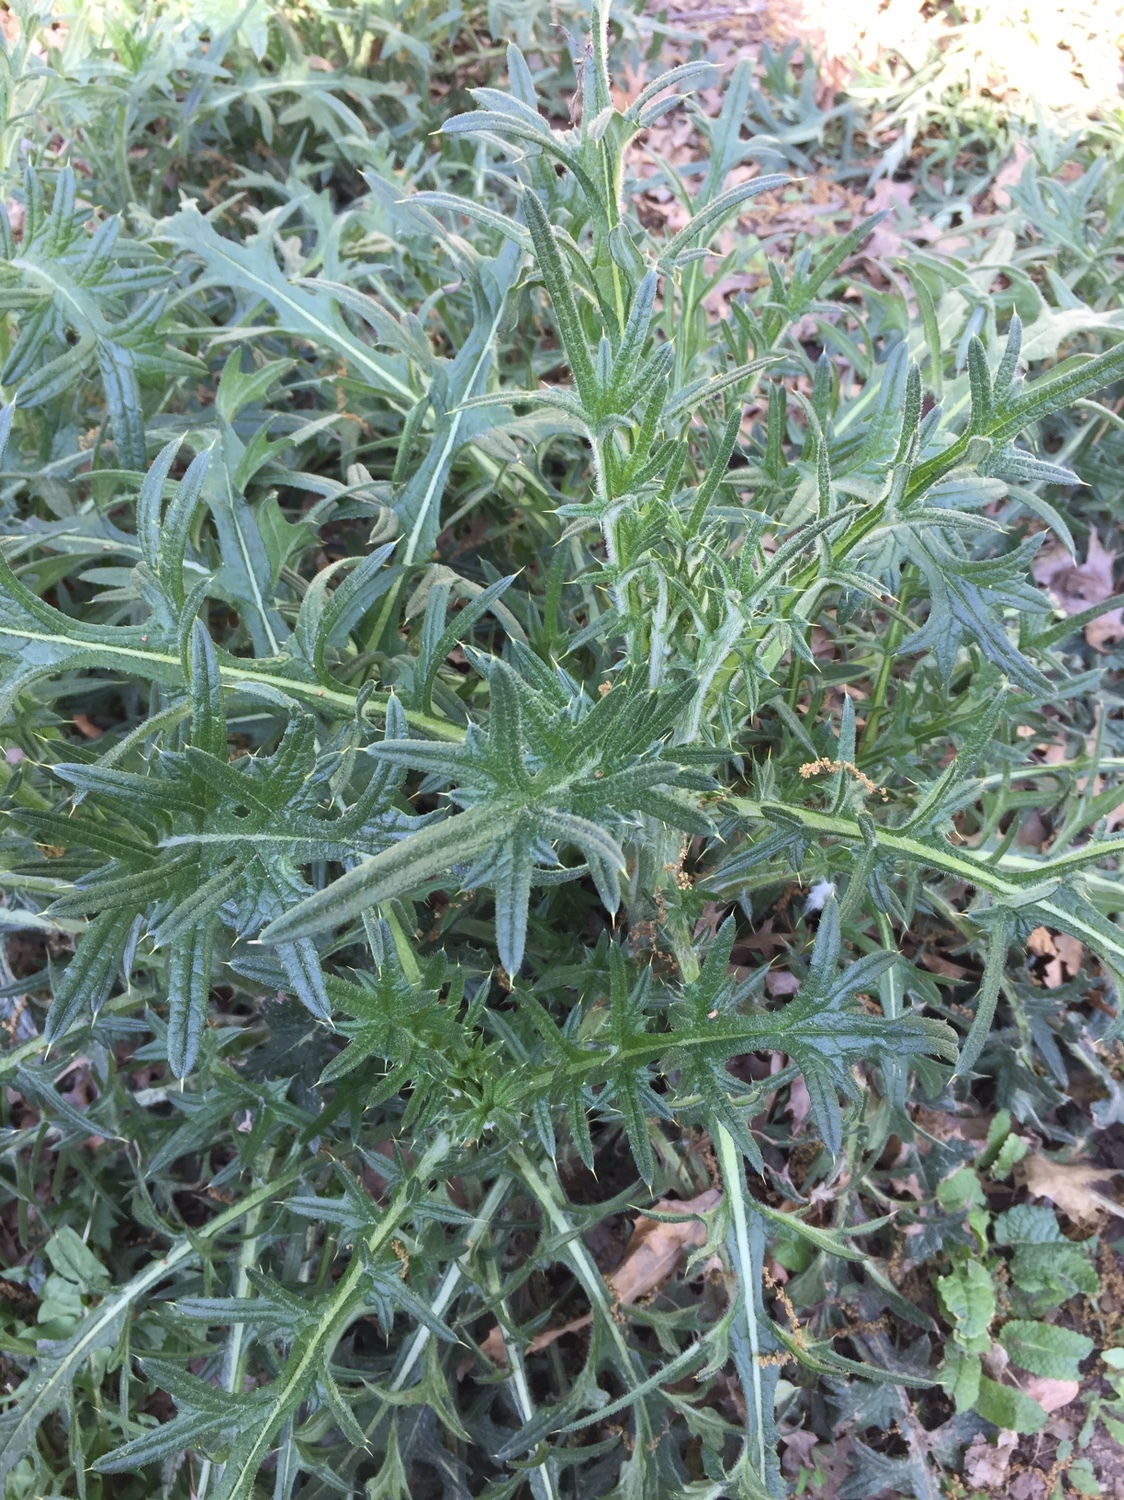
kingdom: Plantae
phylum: Tracheophyta
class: Magnoliopsida
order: Asterales
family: Asteraceae
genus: Cirsium
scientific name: Cirsium vulgare
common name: Bull thistle
